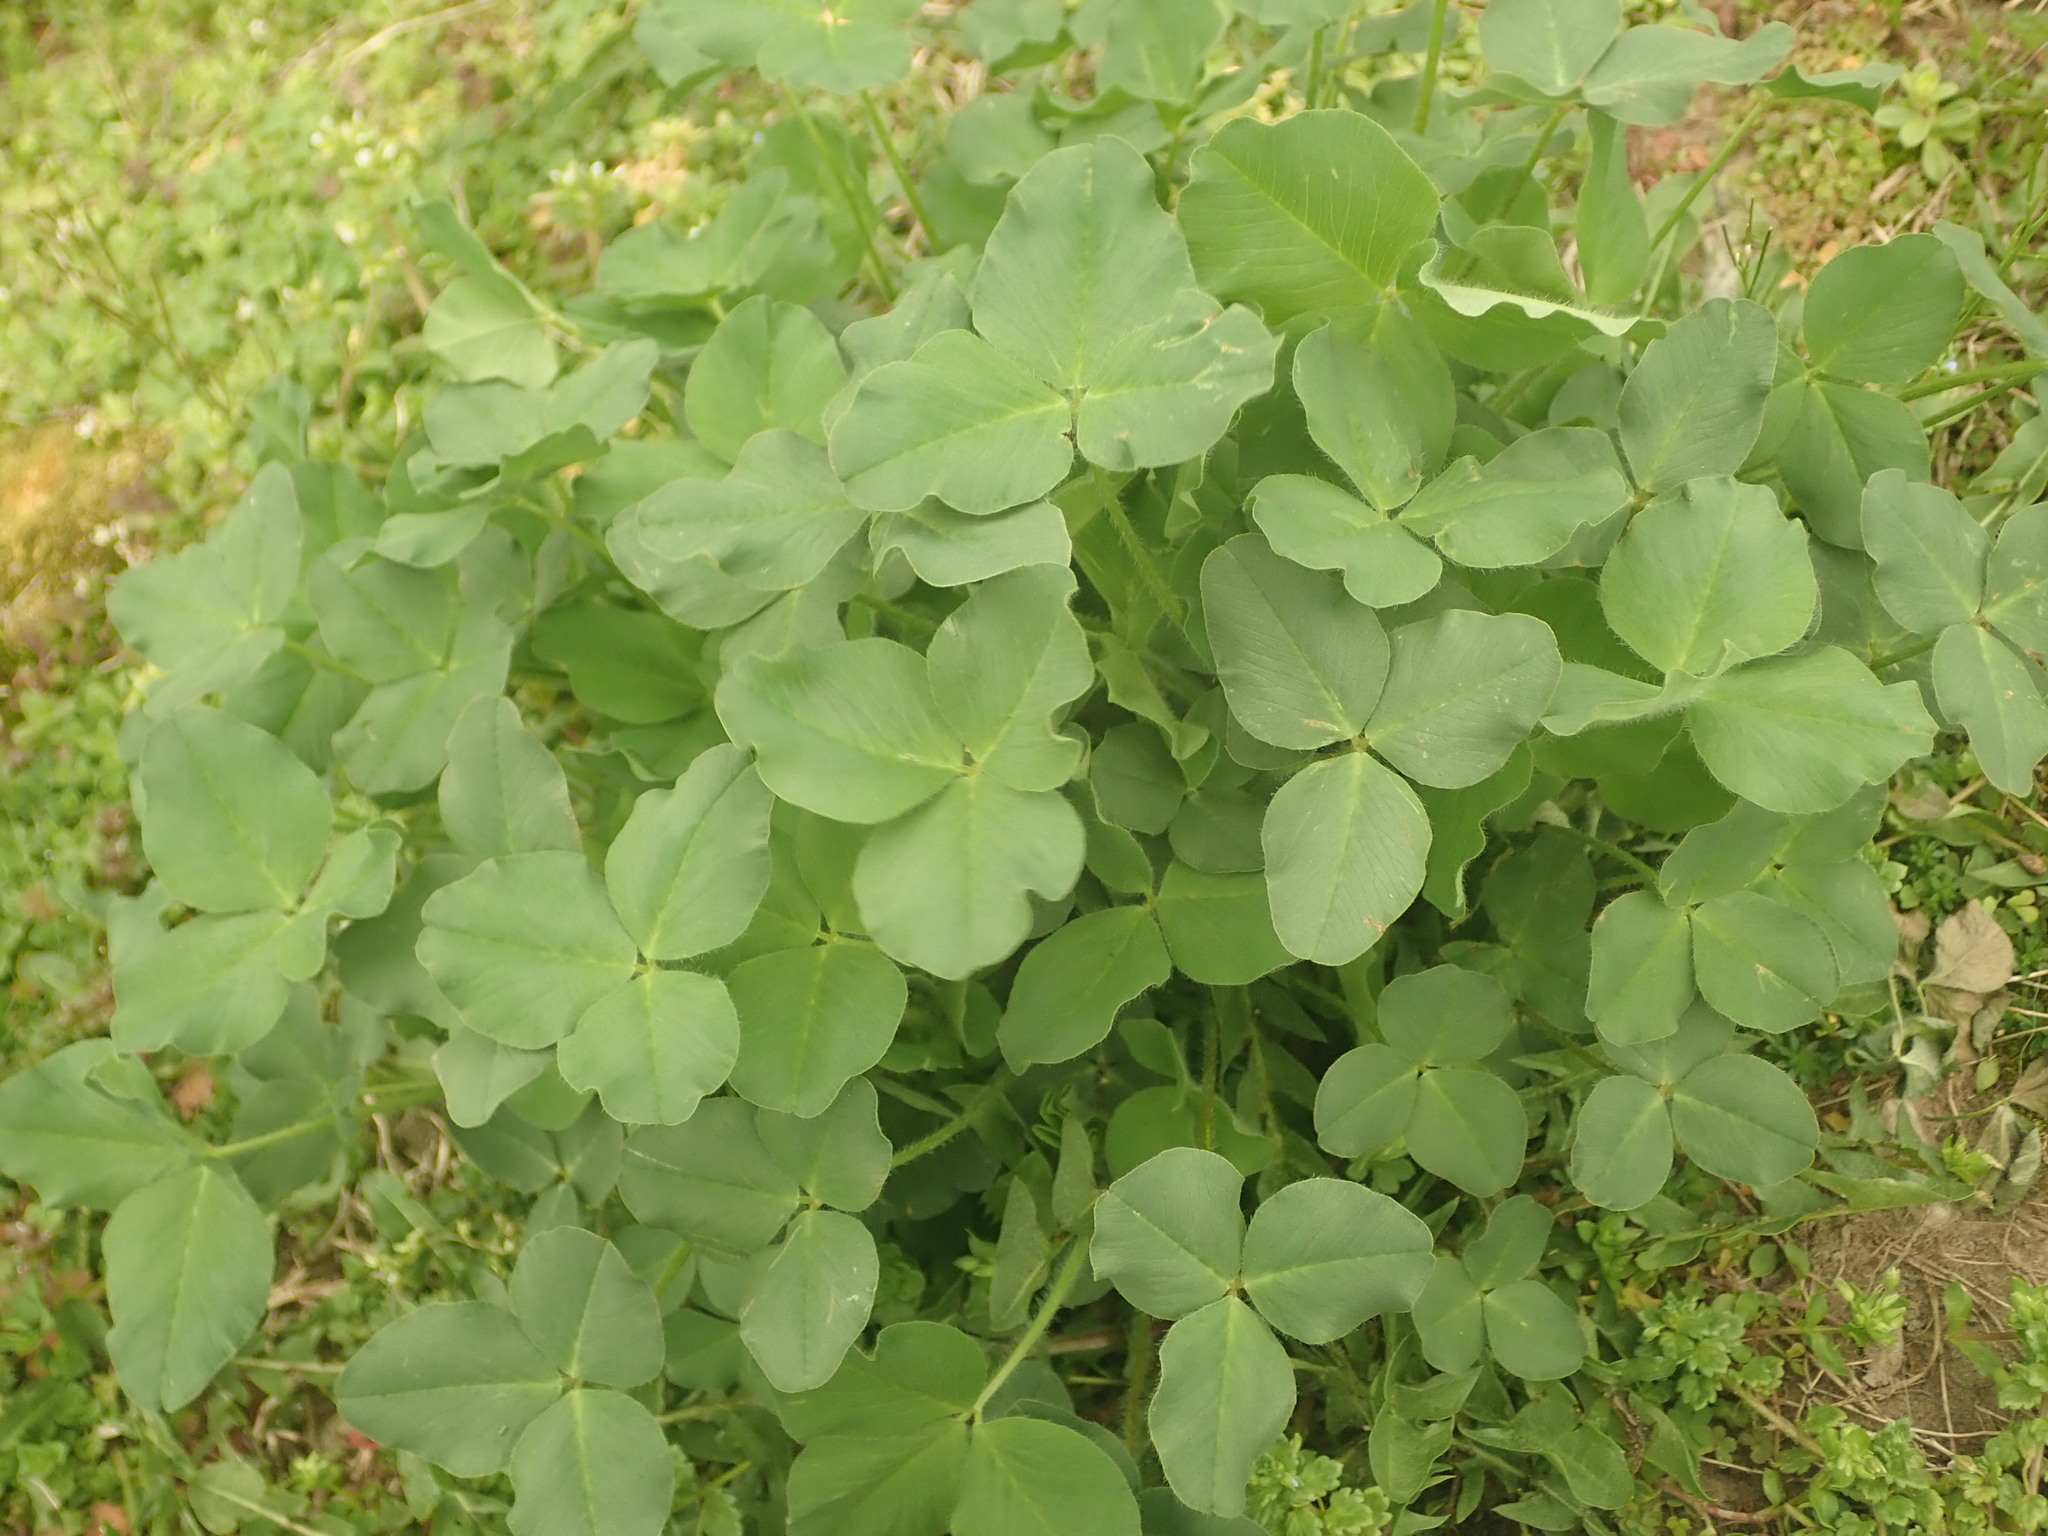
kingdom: Plantae
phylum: Tracheophyta
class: Magnoliopsida
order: Fabales
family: Fabaceae
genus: Trifolium
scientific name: Trifolium pratense
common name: Red clover
